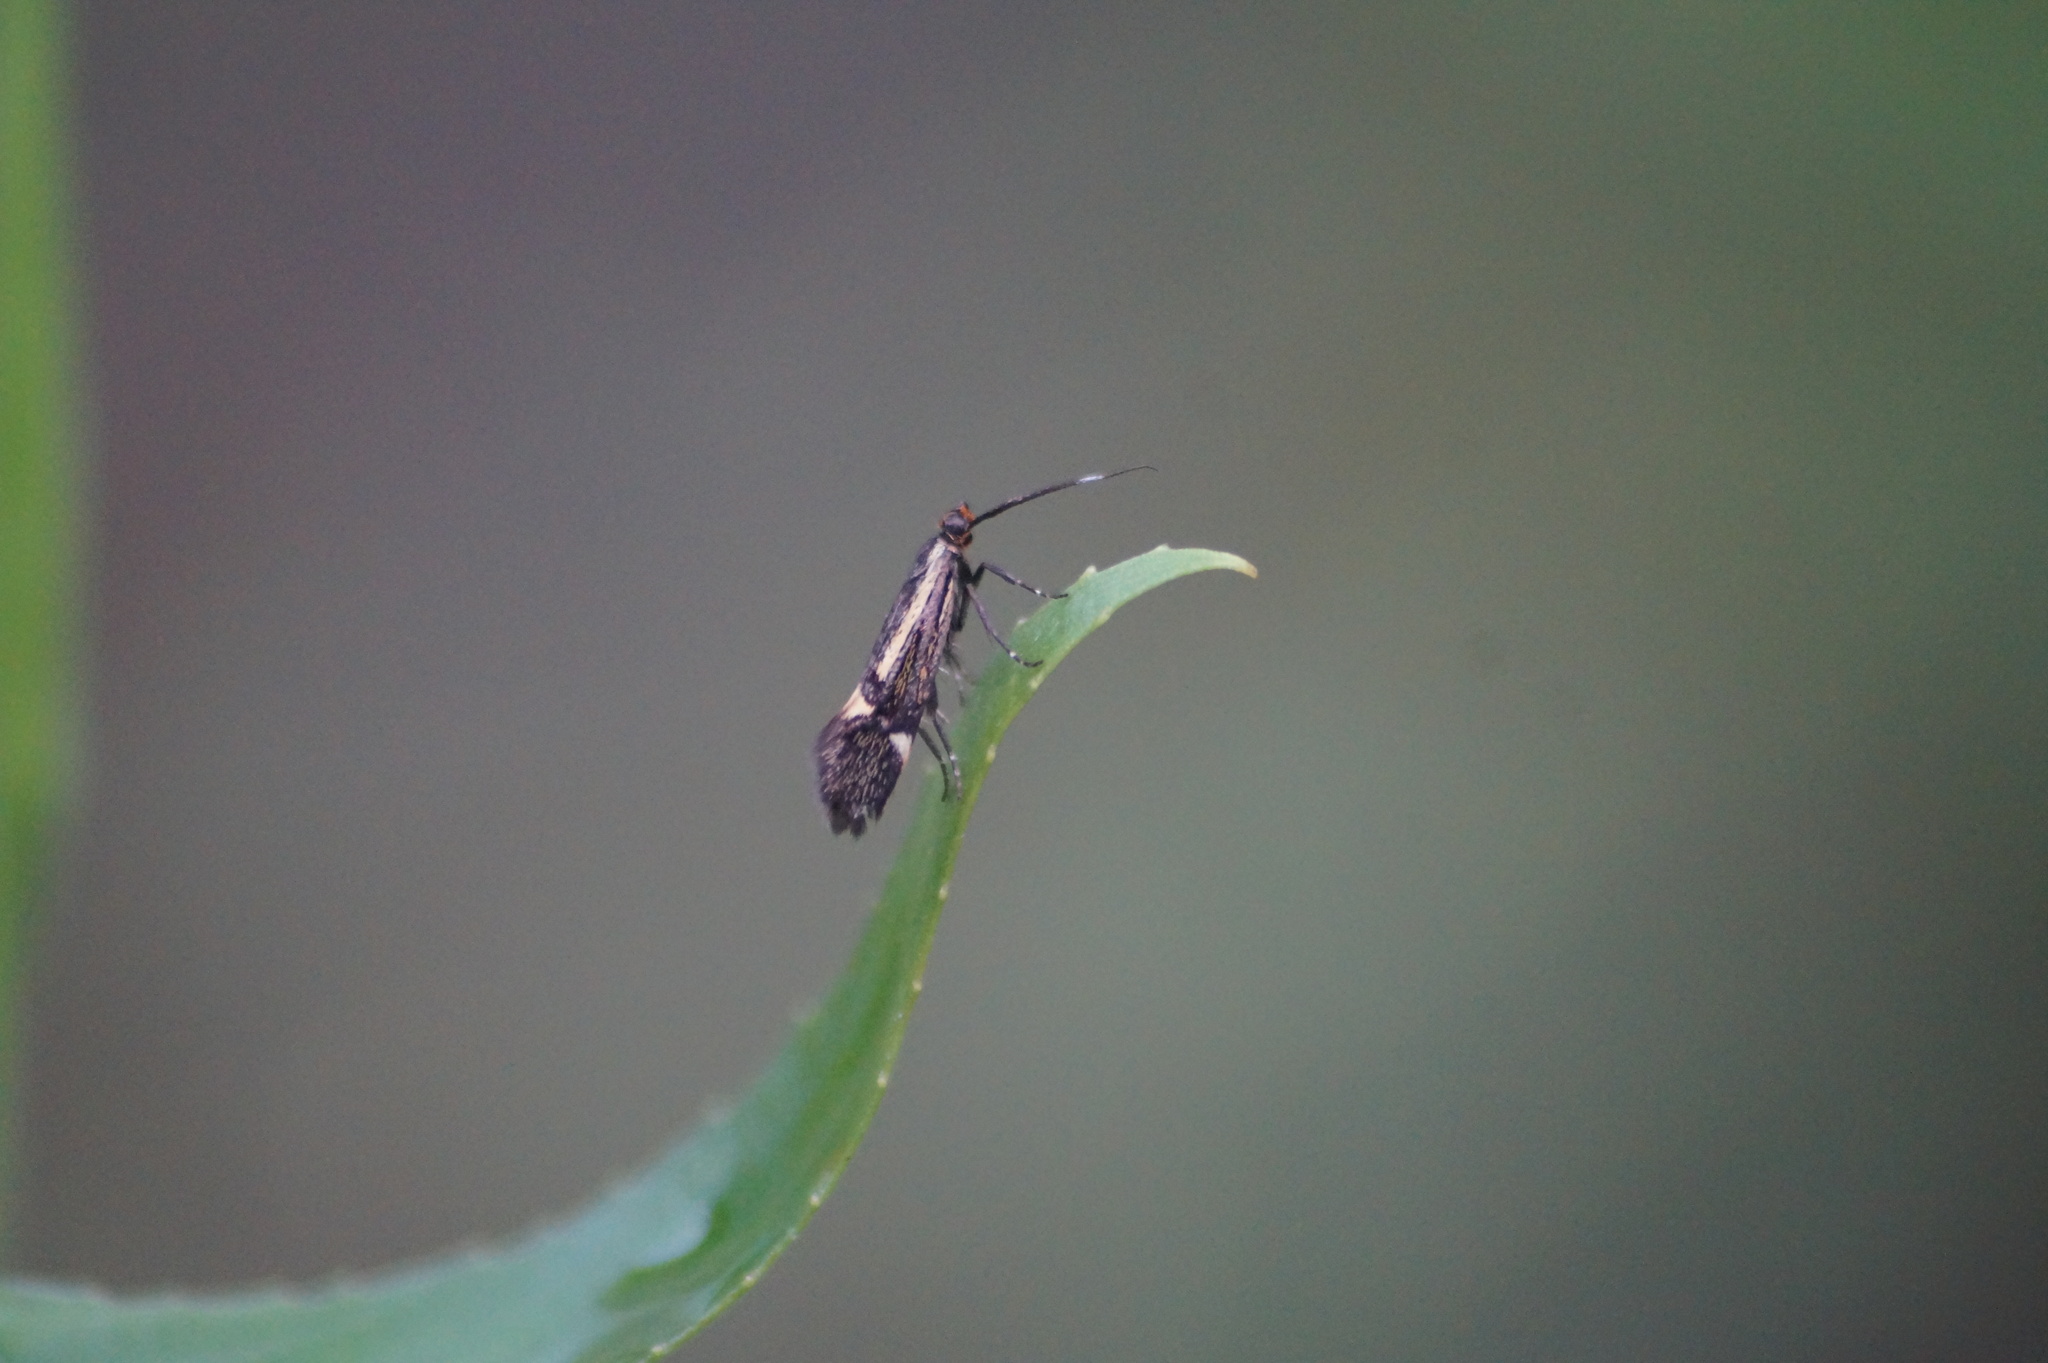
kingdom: Animalia
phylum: Arthropoda
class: Insecta
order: Lepidoptera
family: Oecophoridae
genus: Dafa
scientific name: Dafa Esperia sulphurella
